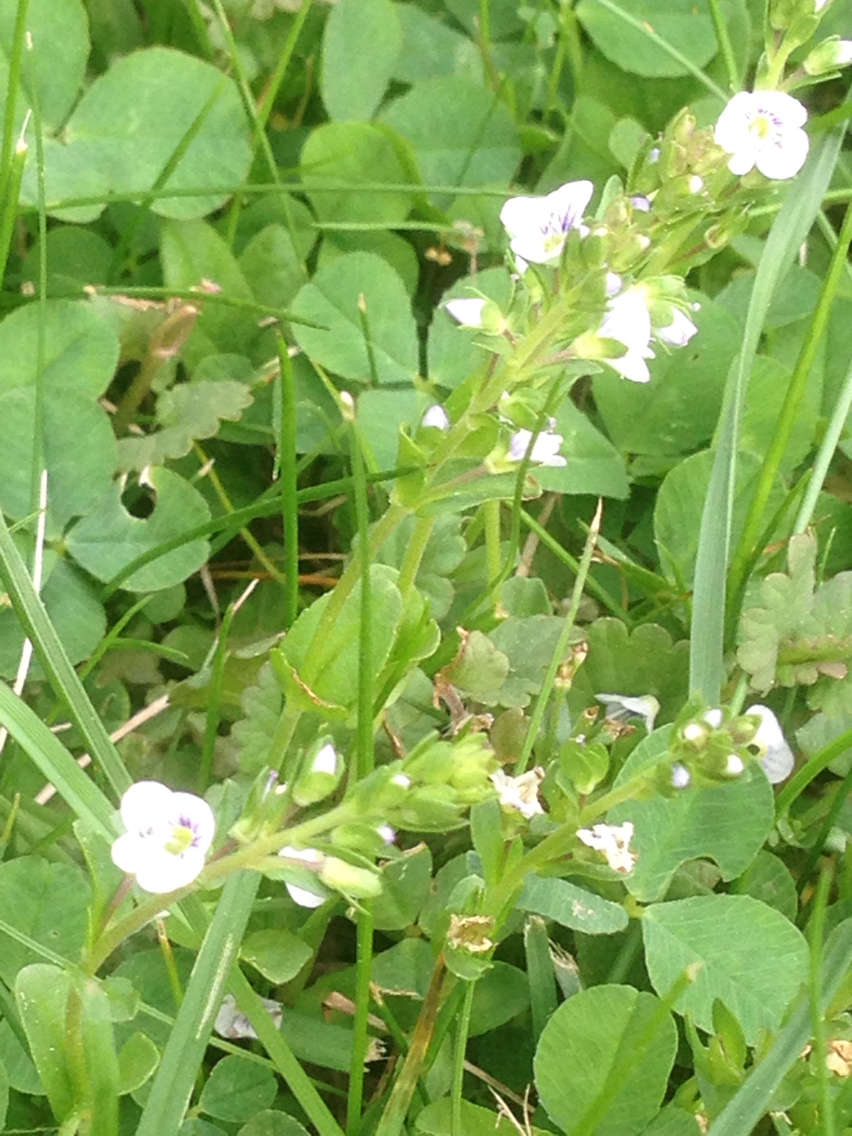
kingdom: Plantae
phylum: Tracheophyta
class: Magnoliopsida
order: Lamiales
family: Plantaginaceae
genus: Veronica
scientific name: Veronica serpyllifolia
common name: Thyme-leaved speedwell
